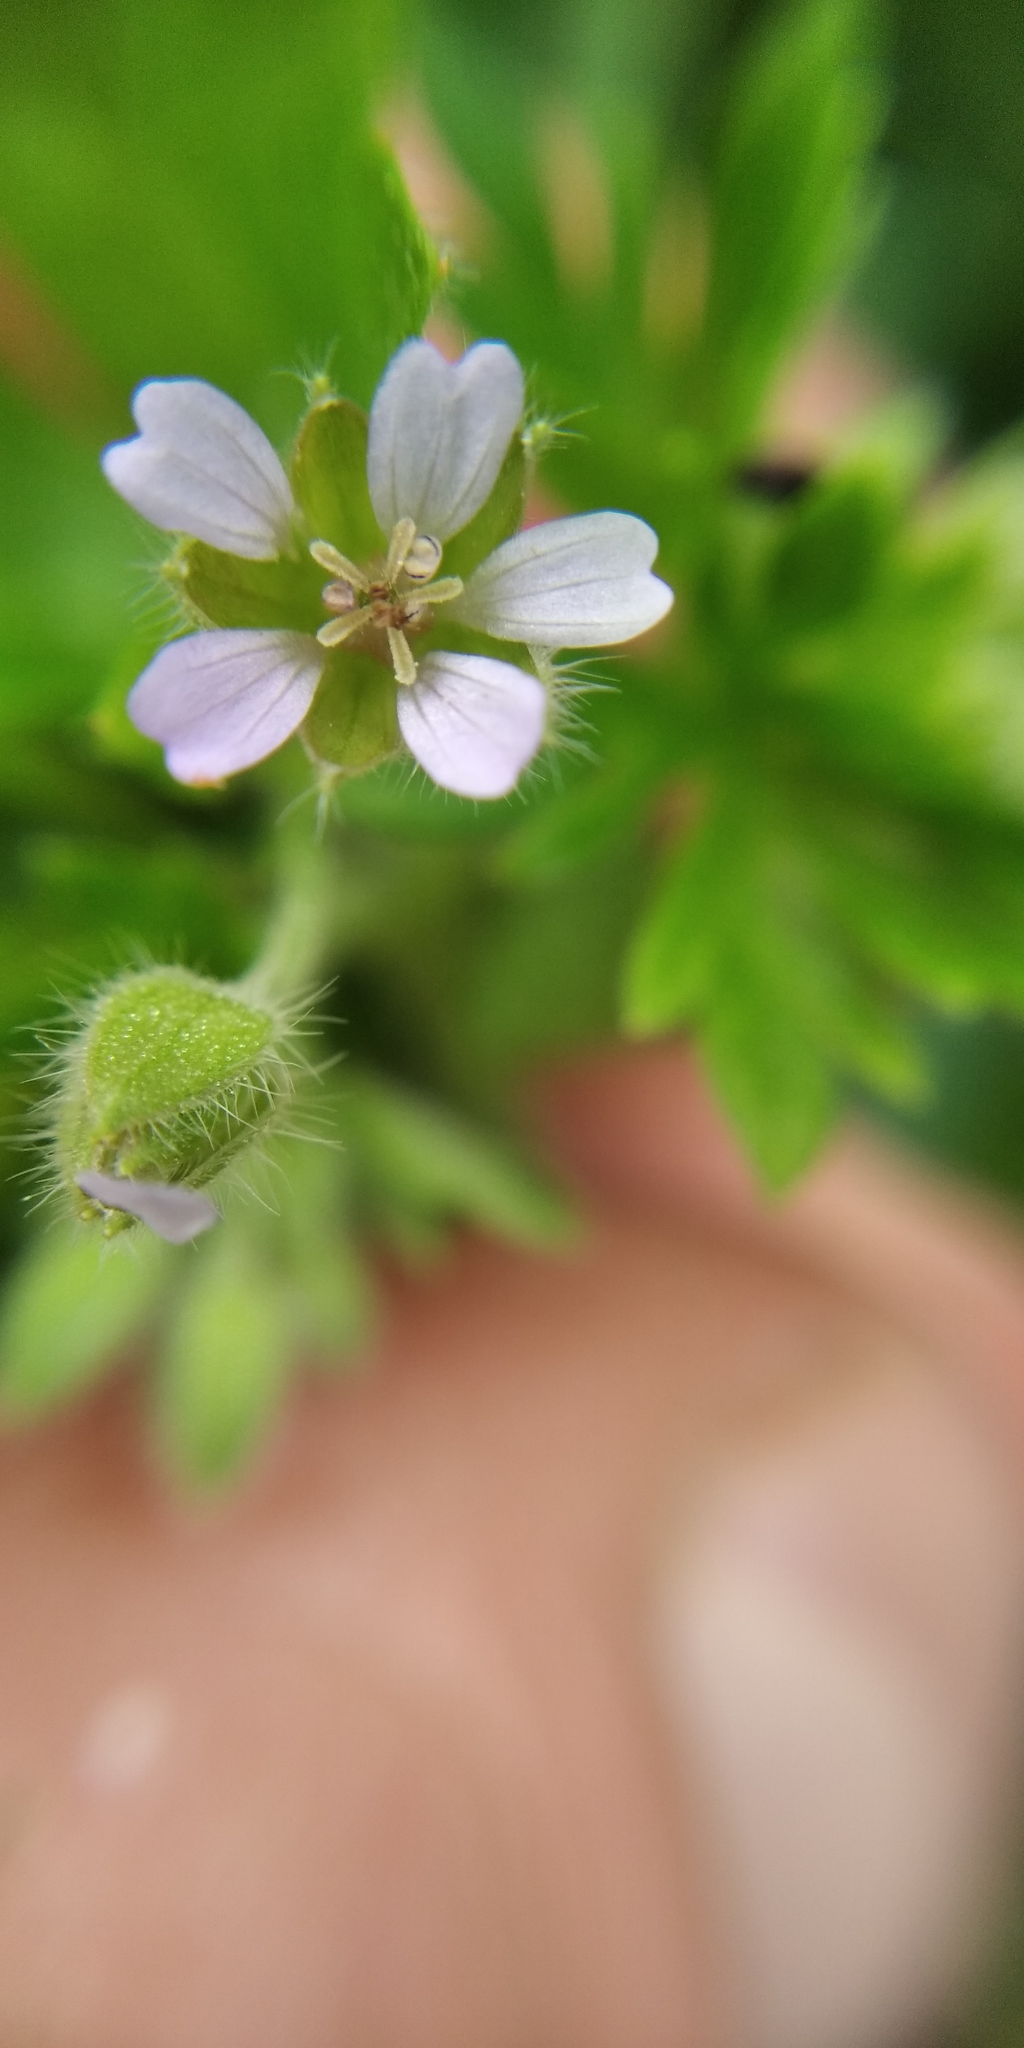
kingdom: Plantae
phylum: Tracheophyta
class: Magnoliopsida
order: Geraniales
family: Geraniaceae
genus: Geranium
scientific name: Geranium pusillum
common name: Small geranium
